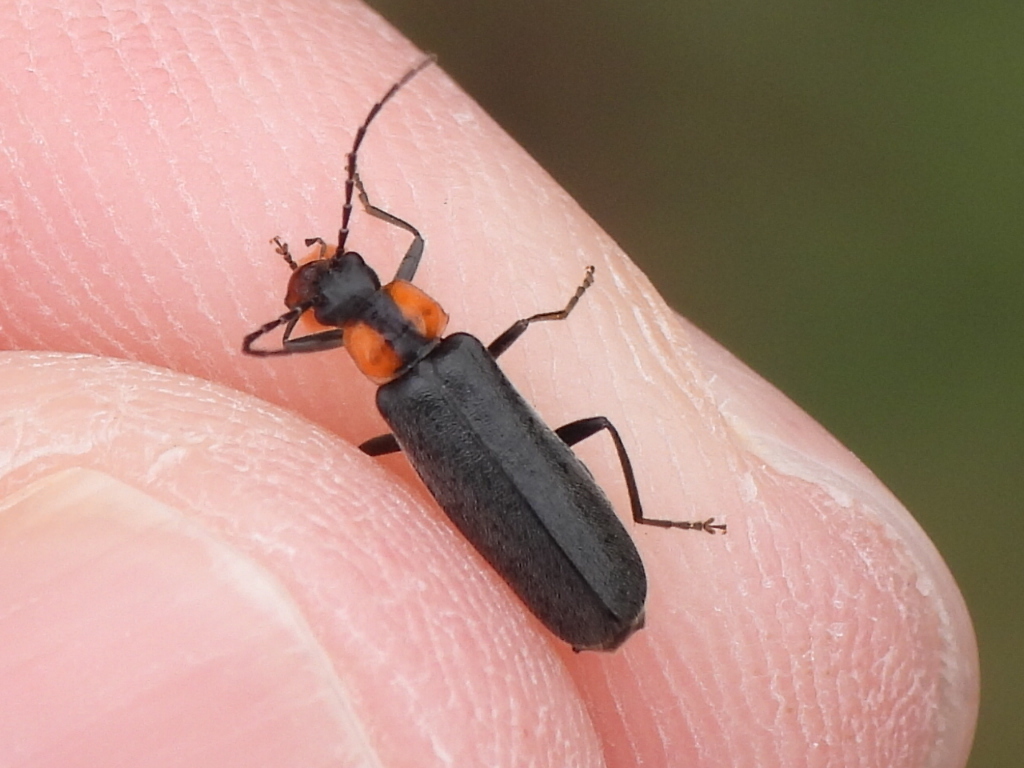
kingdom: Animalia
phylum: Arthropoda
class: Insecta
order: Coleoptera
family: Cantharidae
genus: Rhagonycha
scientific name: Rhagonycha lineola
